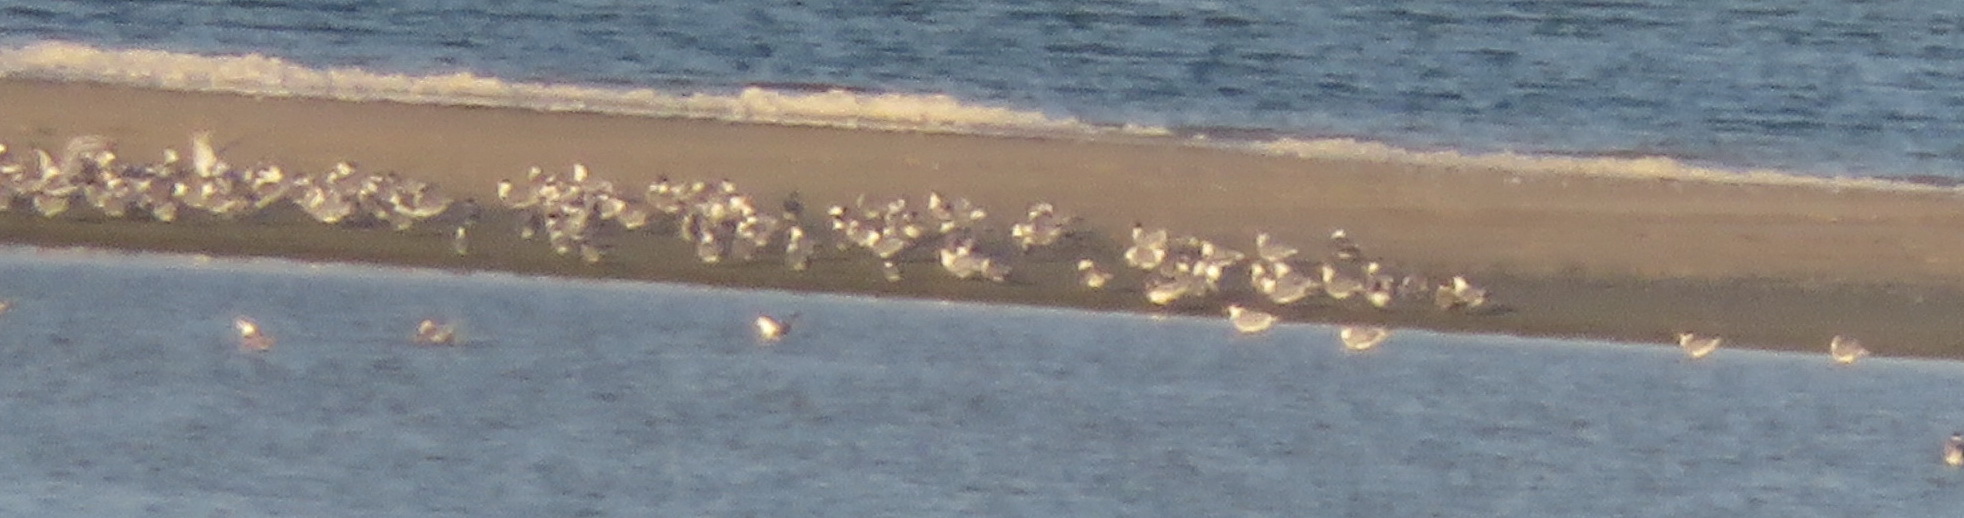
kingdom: Animalia
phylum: Chordata
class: Aves
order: Charadriiformes
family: Laridae
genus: Thalasseus
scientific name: Thalasseus bergii
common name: Greater crested tern
